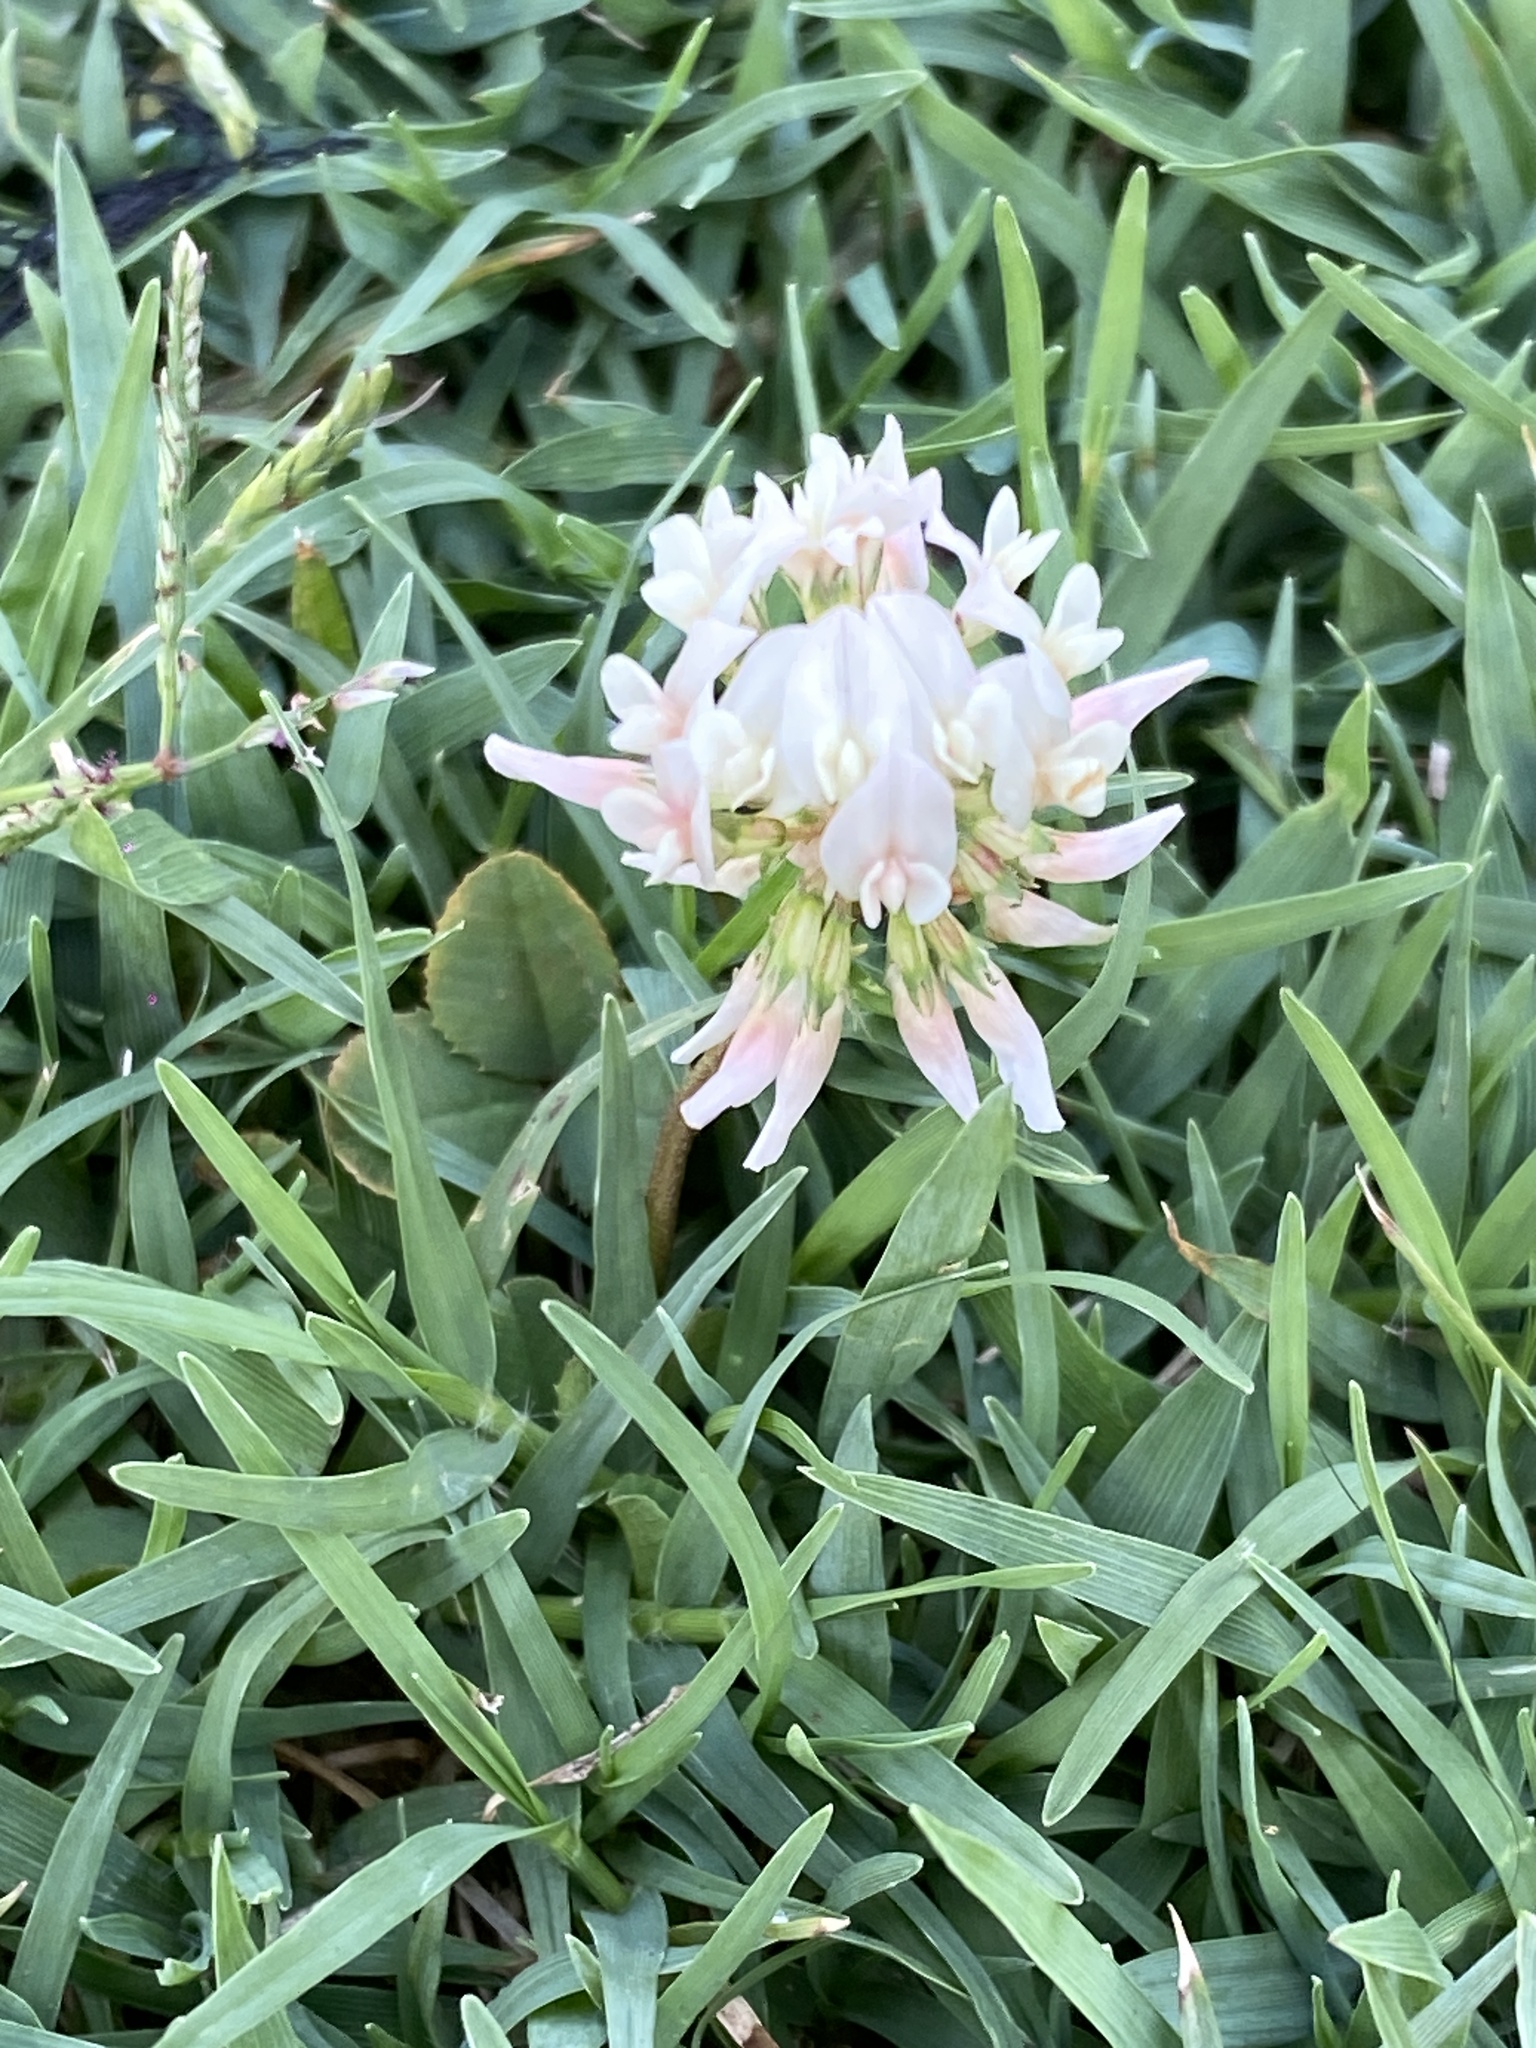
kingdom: Plantae
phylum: Tracheophyta
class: Magnoliopsida
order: Fabales
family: Fabaceae
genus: Trifolium
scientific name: Trifolium repens
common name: White clover
